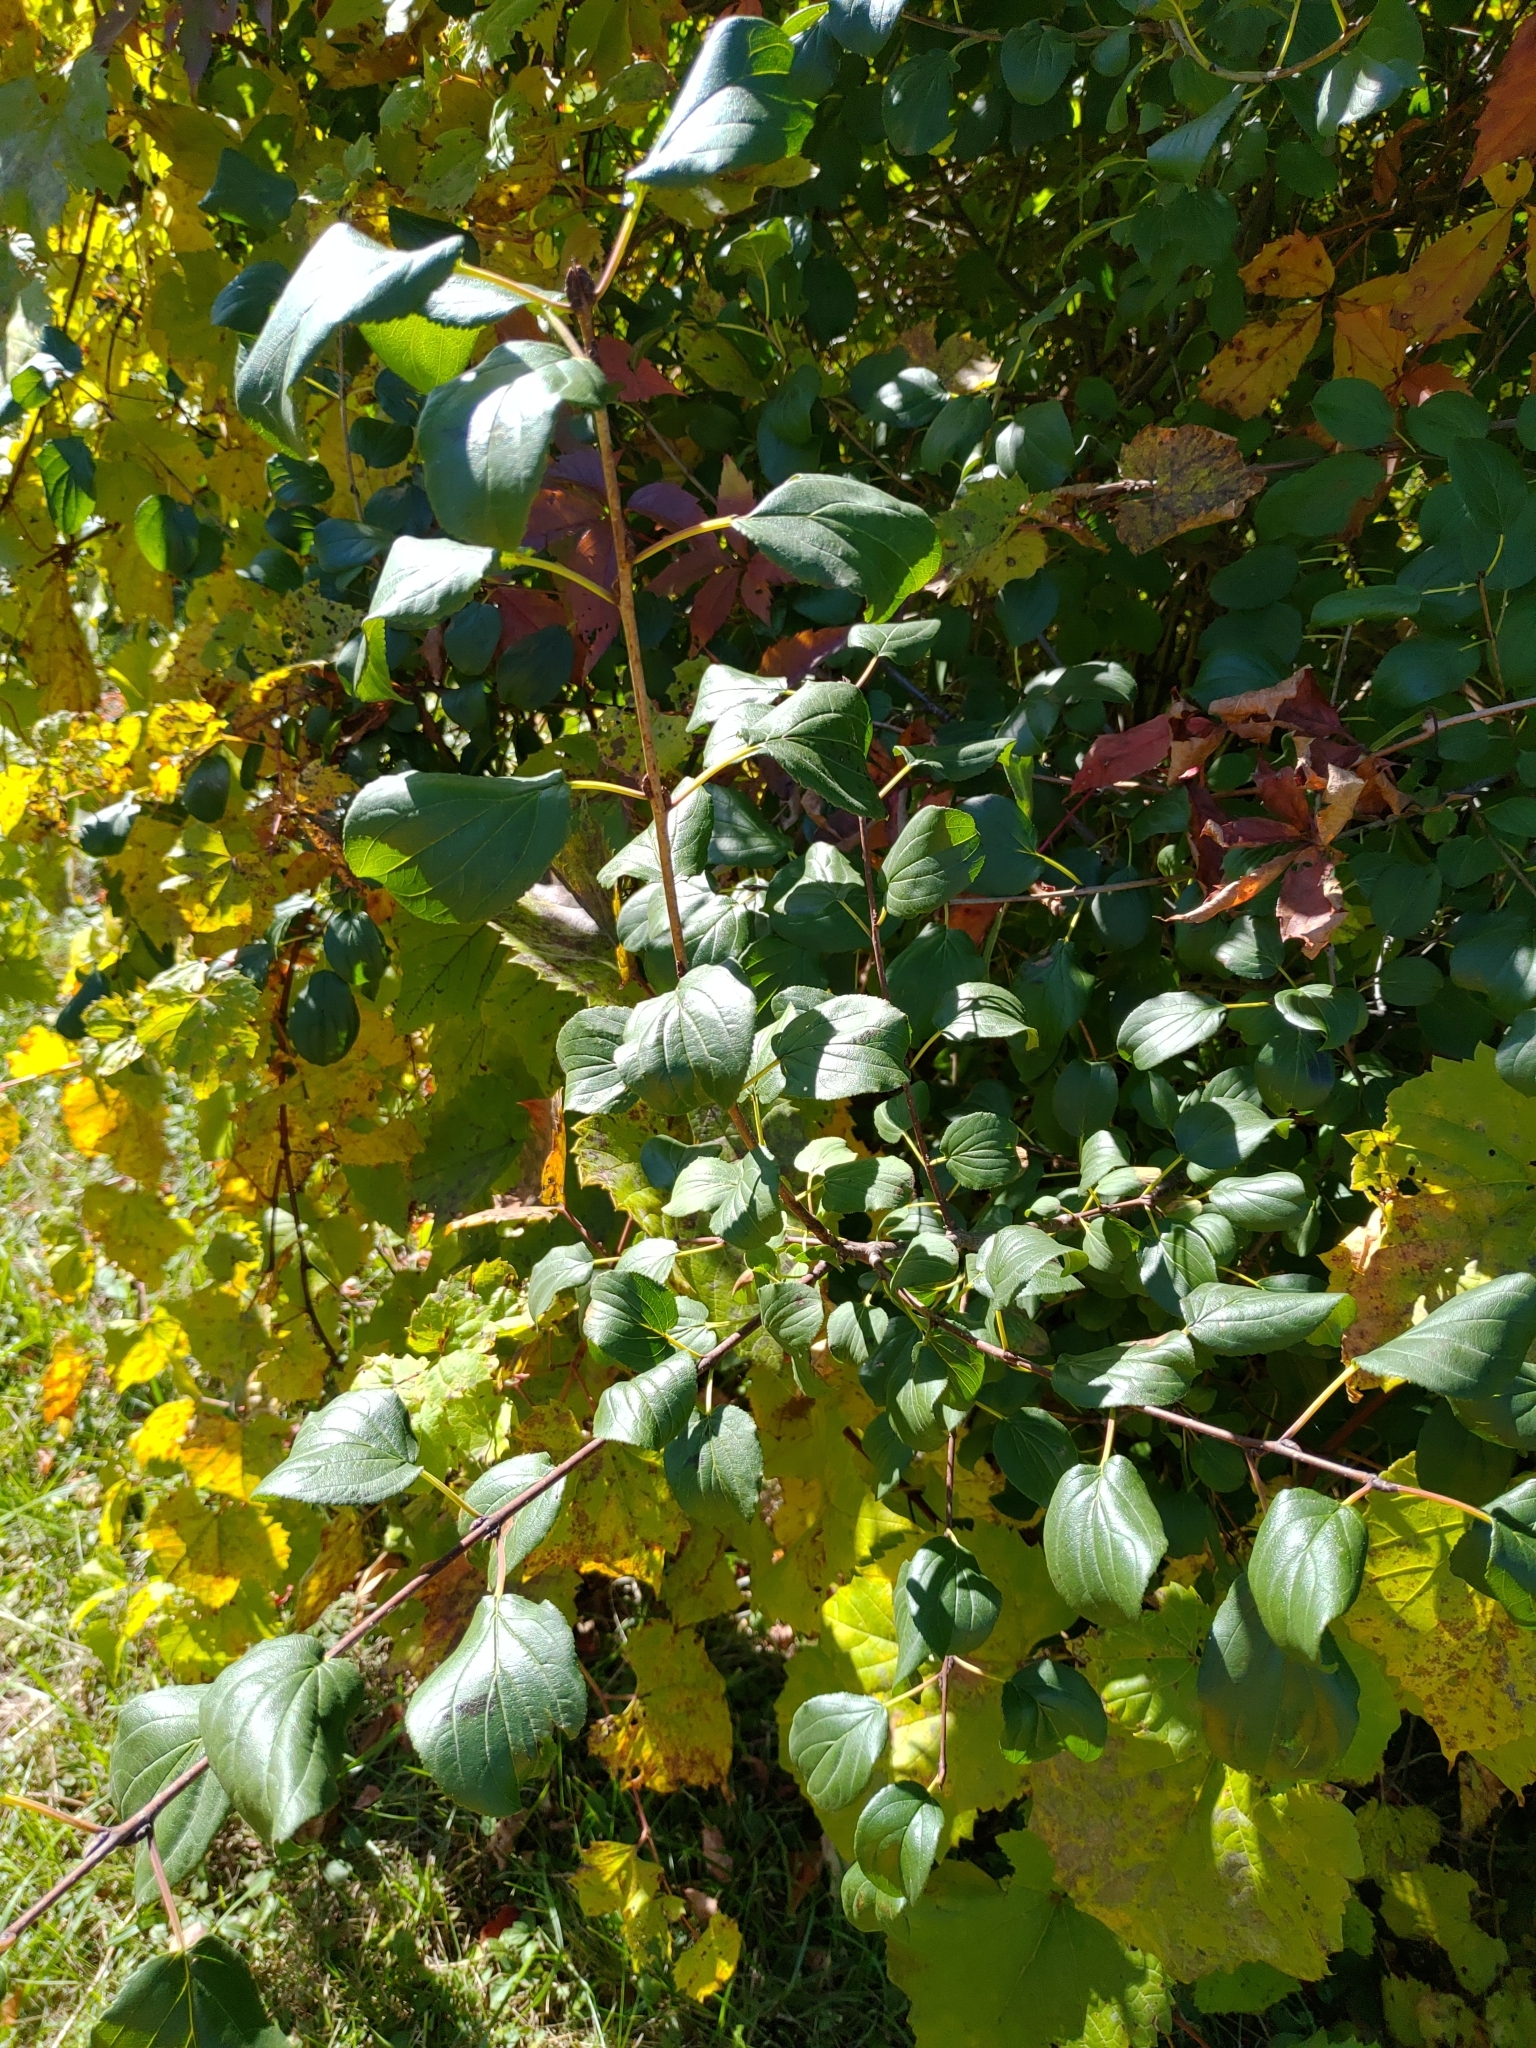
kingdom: Plantae
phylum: Tracheophyta
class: Magnoliopsida
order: Rosales
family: Rhamnaceae
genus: Rhamnus
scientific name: Rhamnus cathartica
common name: Common buckthorn
